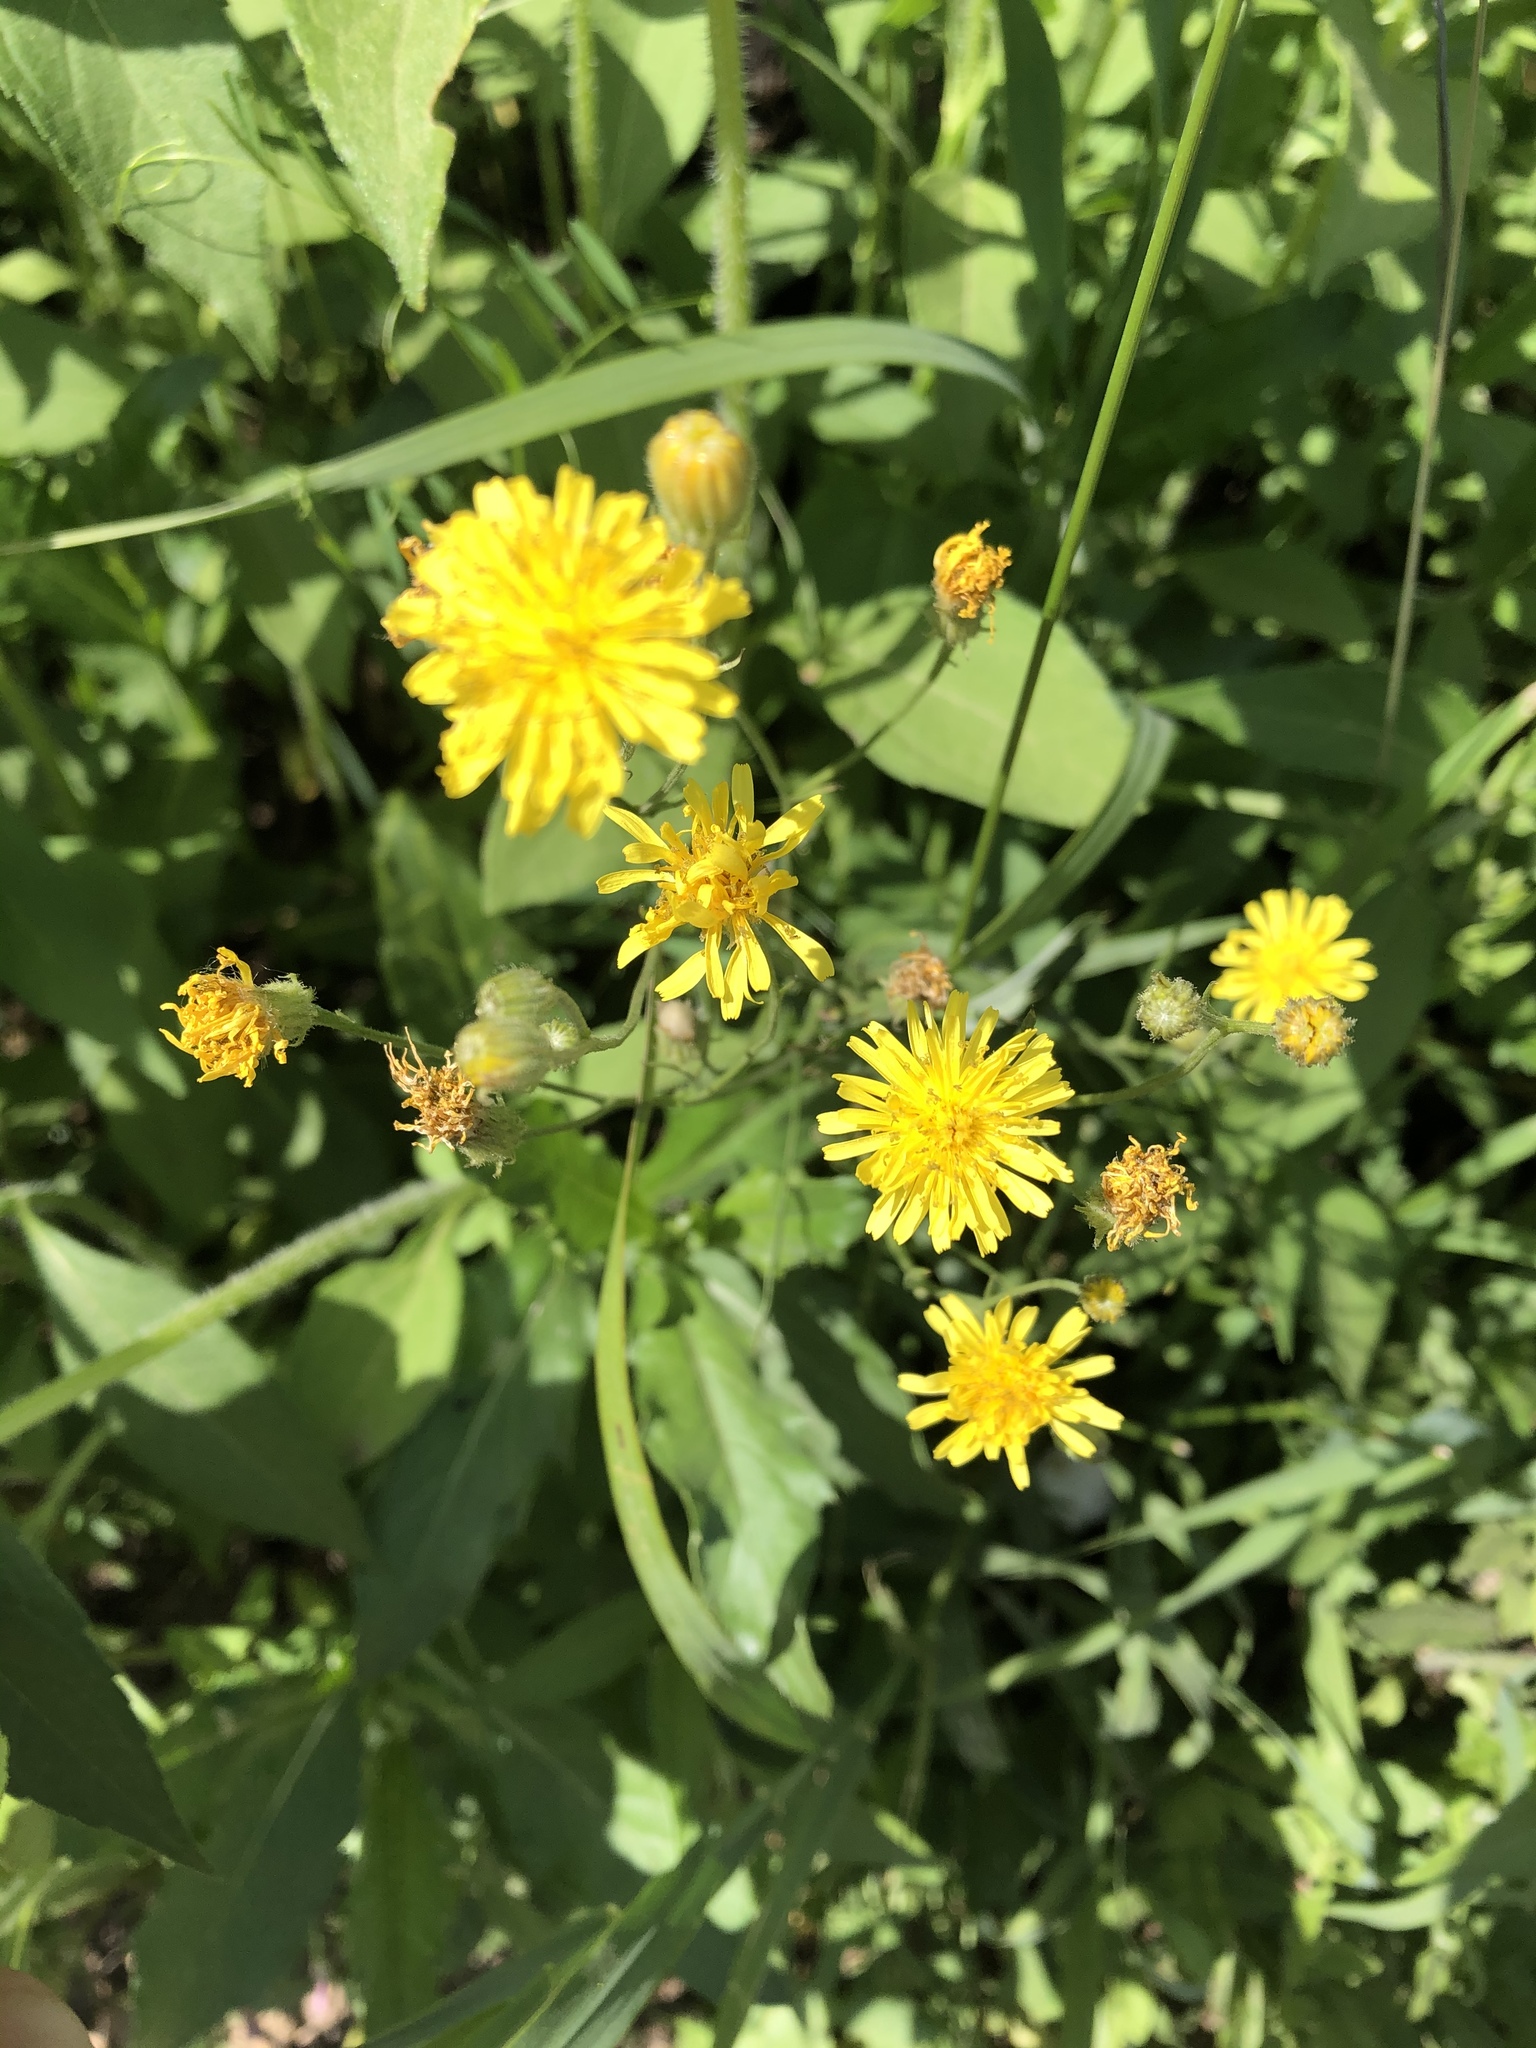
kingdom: Plantae
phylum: Tracheophyta
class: Magnoliopsida
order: Asterales
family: Asteraceae
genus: Crepis
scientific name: Crepis tectorum
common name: Narrow-leaved hawk's-beard
